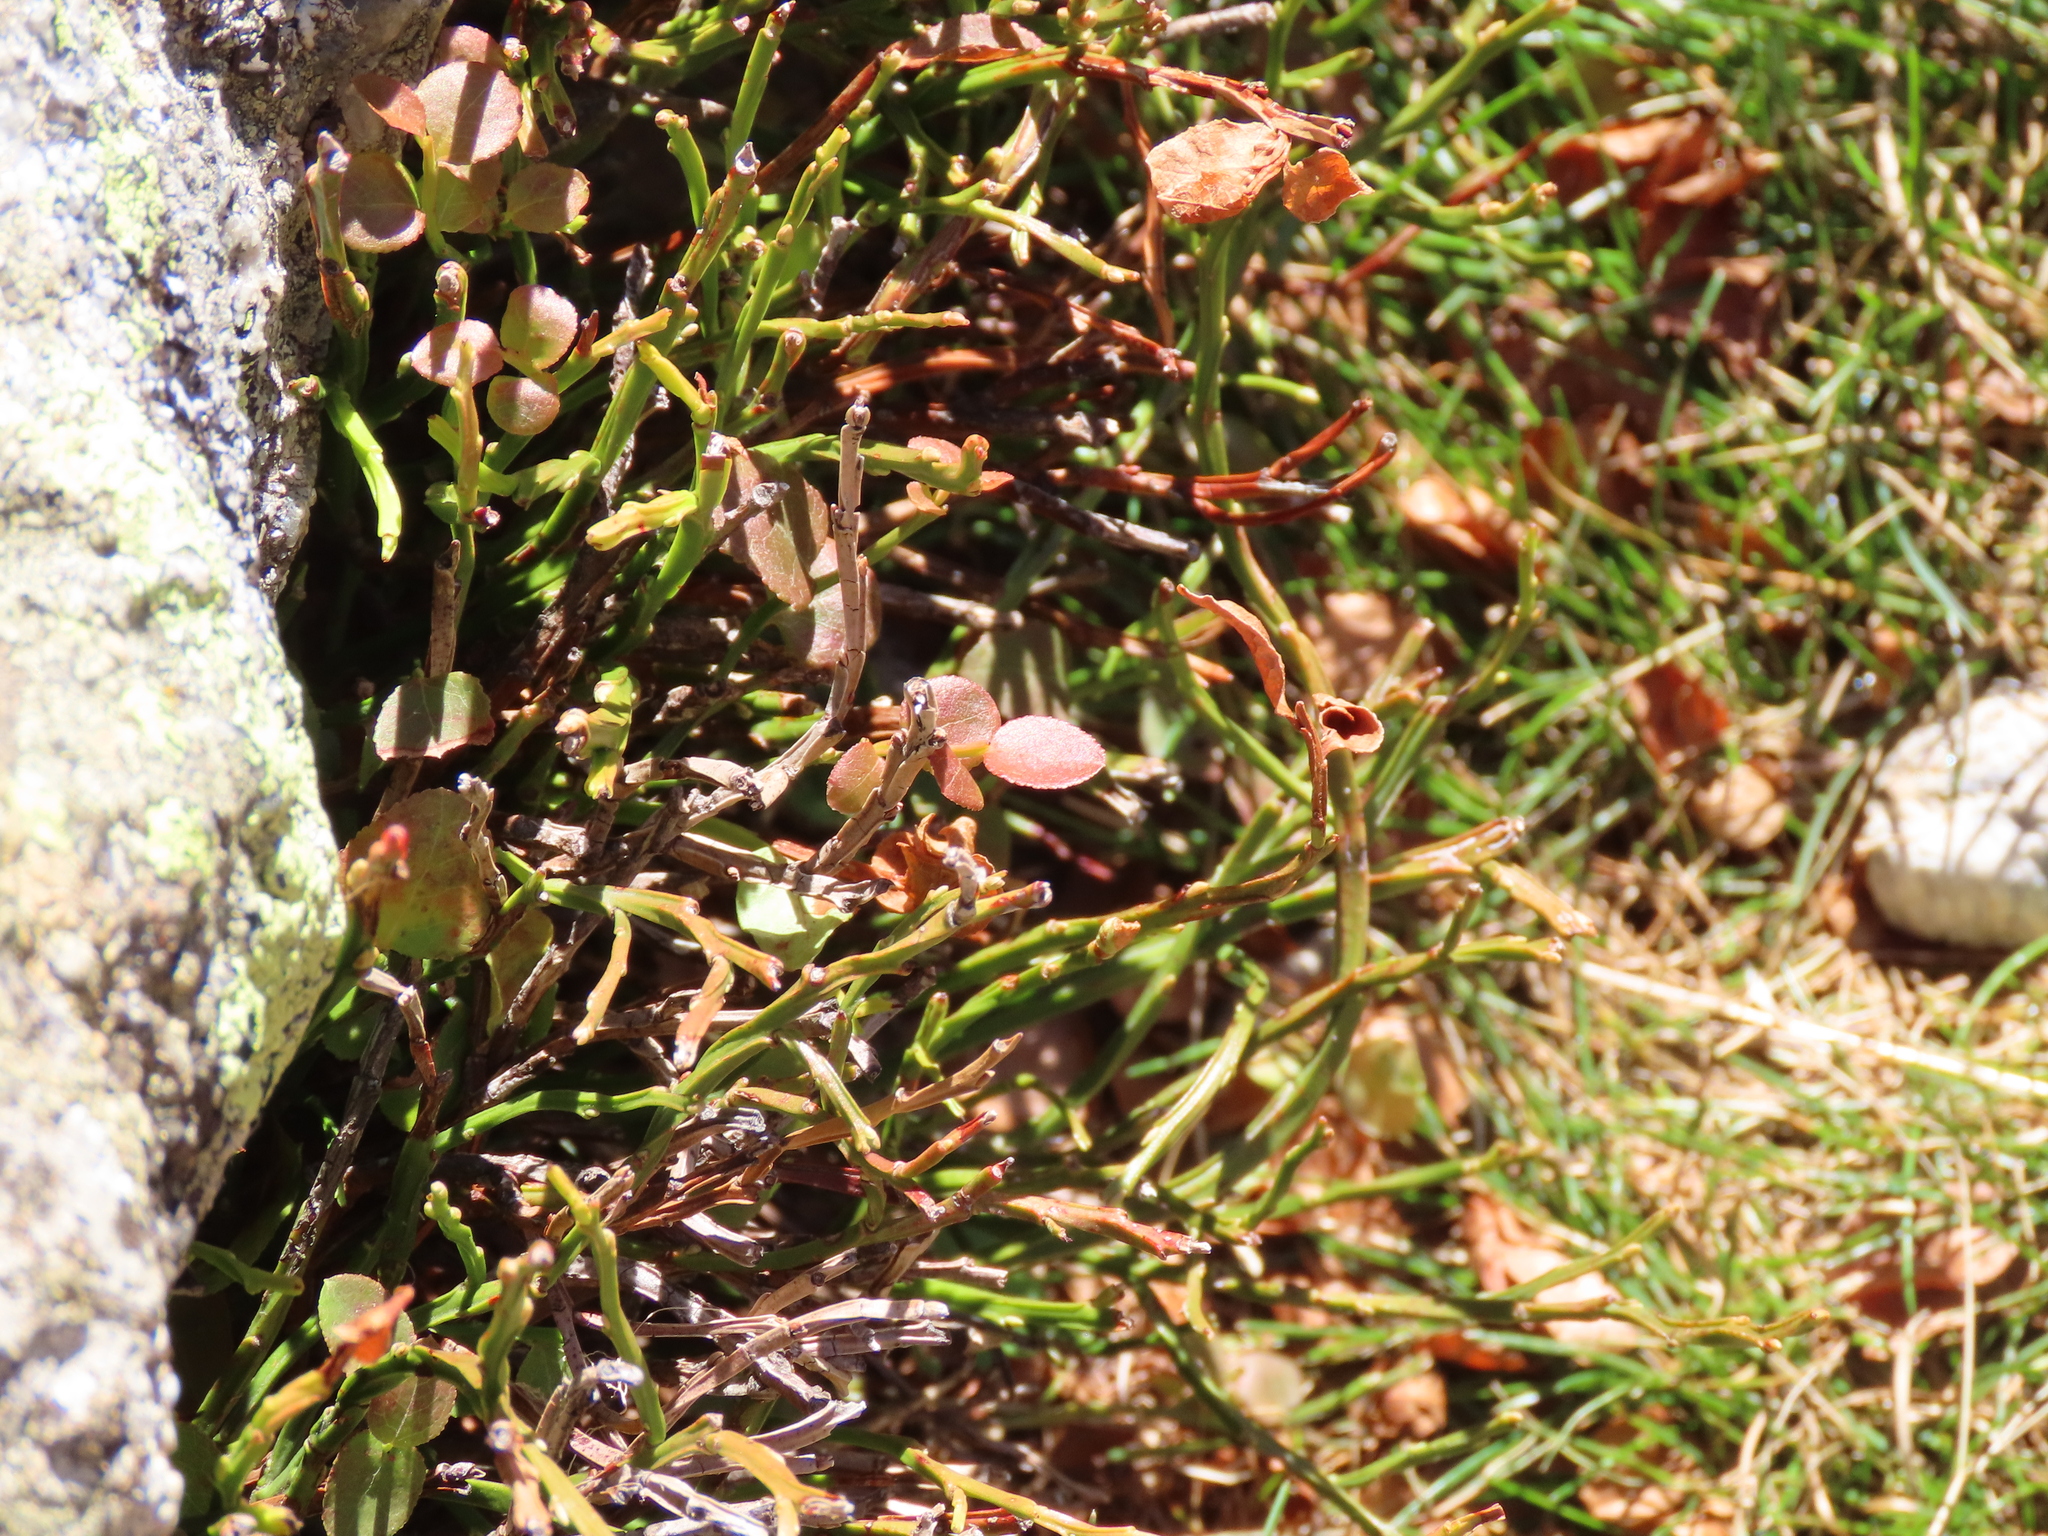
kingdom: Plantae
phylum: Tracheophyta
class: Magnoliopsida
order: Ericales
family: Ericaceae
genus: Vaccinium
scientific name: Vaccinium myrtillus
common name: Bilberry
